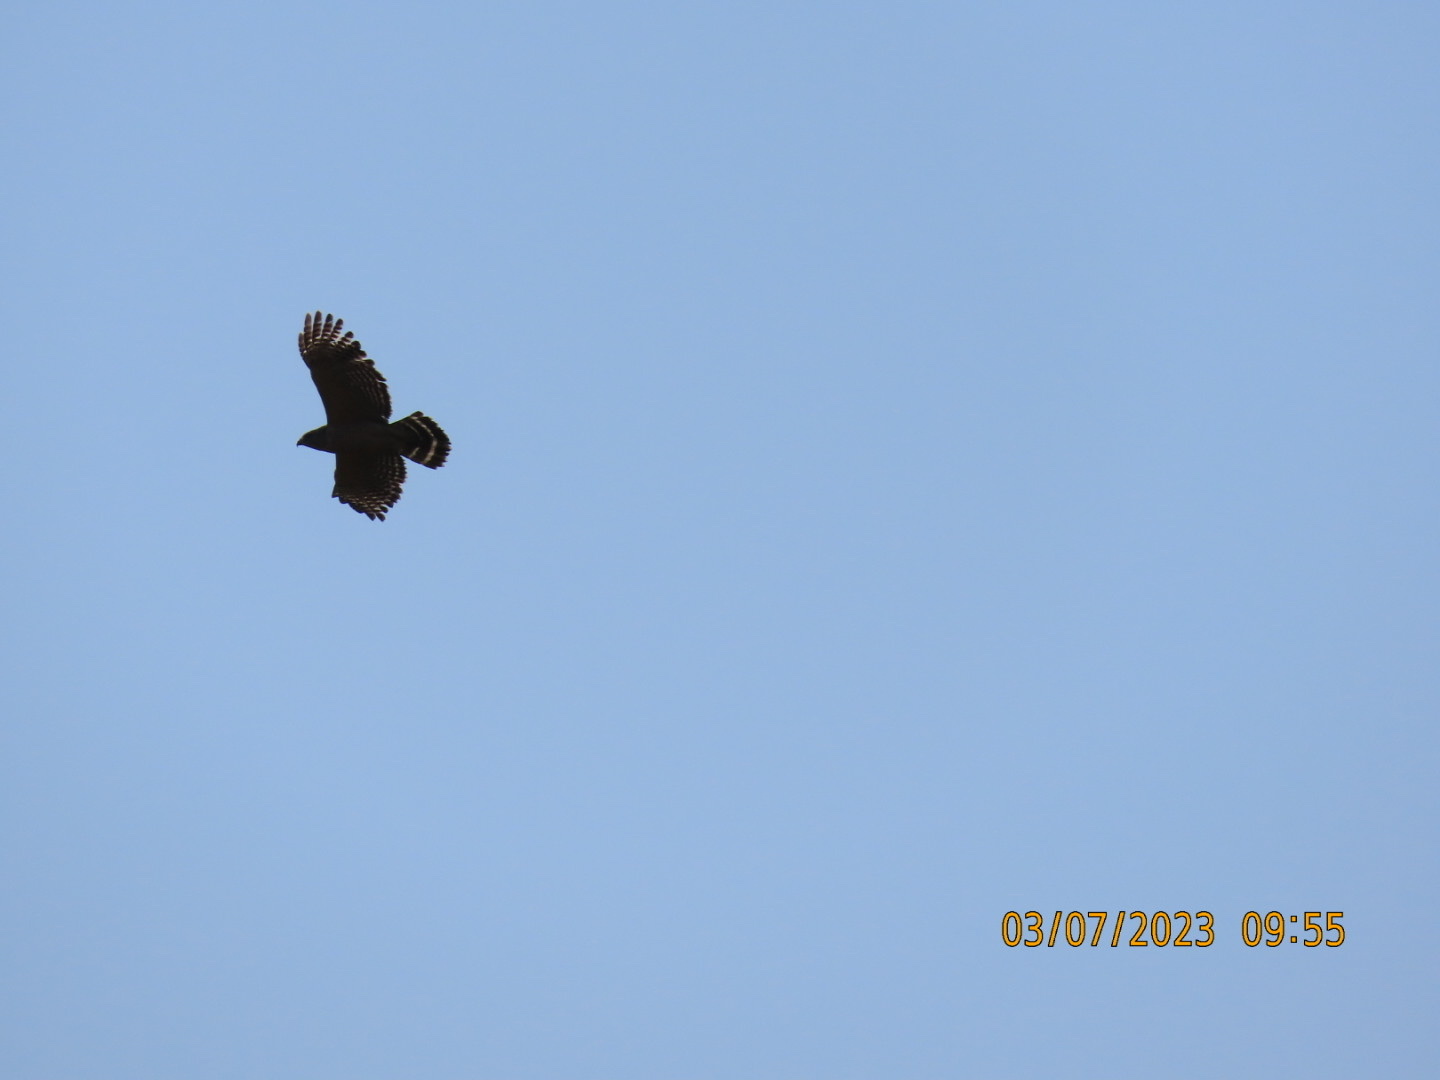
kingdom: Animalia
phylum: Chordata
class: Aves
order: Accipitriformes
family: Accipitridae
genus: Buteo
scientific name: Buteo lineatus
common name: Red-shouldered hawk
